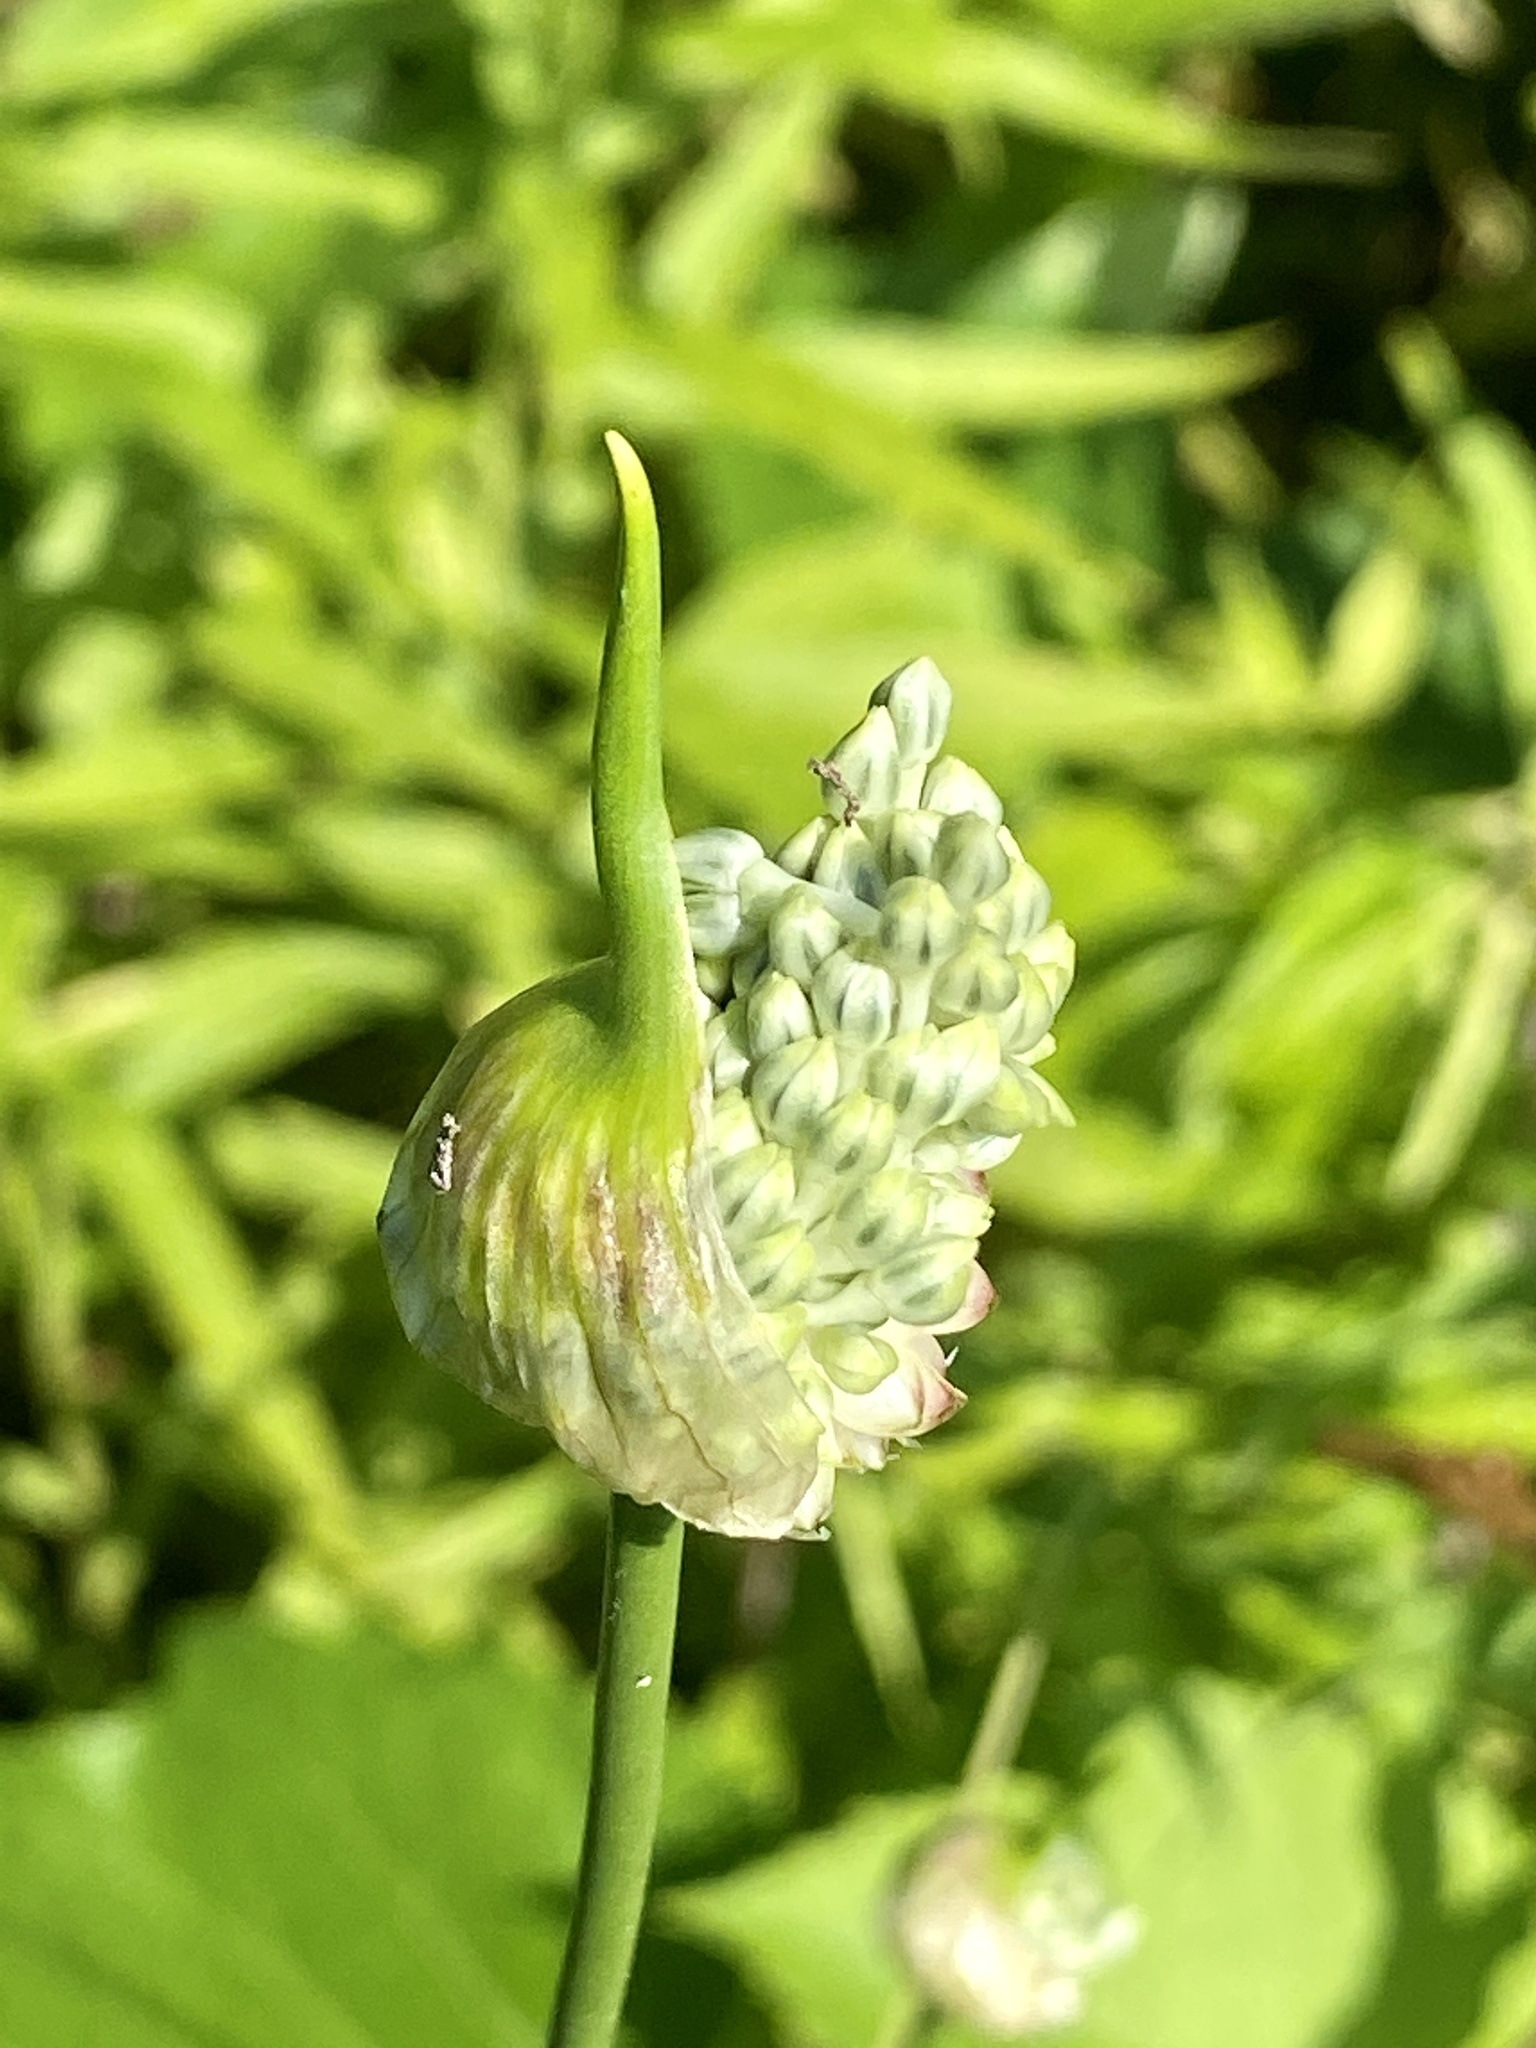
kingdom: Plantae
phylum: Tracheophyta
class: Liliopsida
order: Asparagales
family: Amaryllidaceae
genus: Allium
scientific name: Allium vineale
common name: Crow garlic
